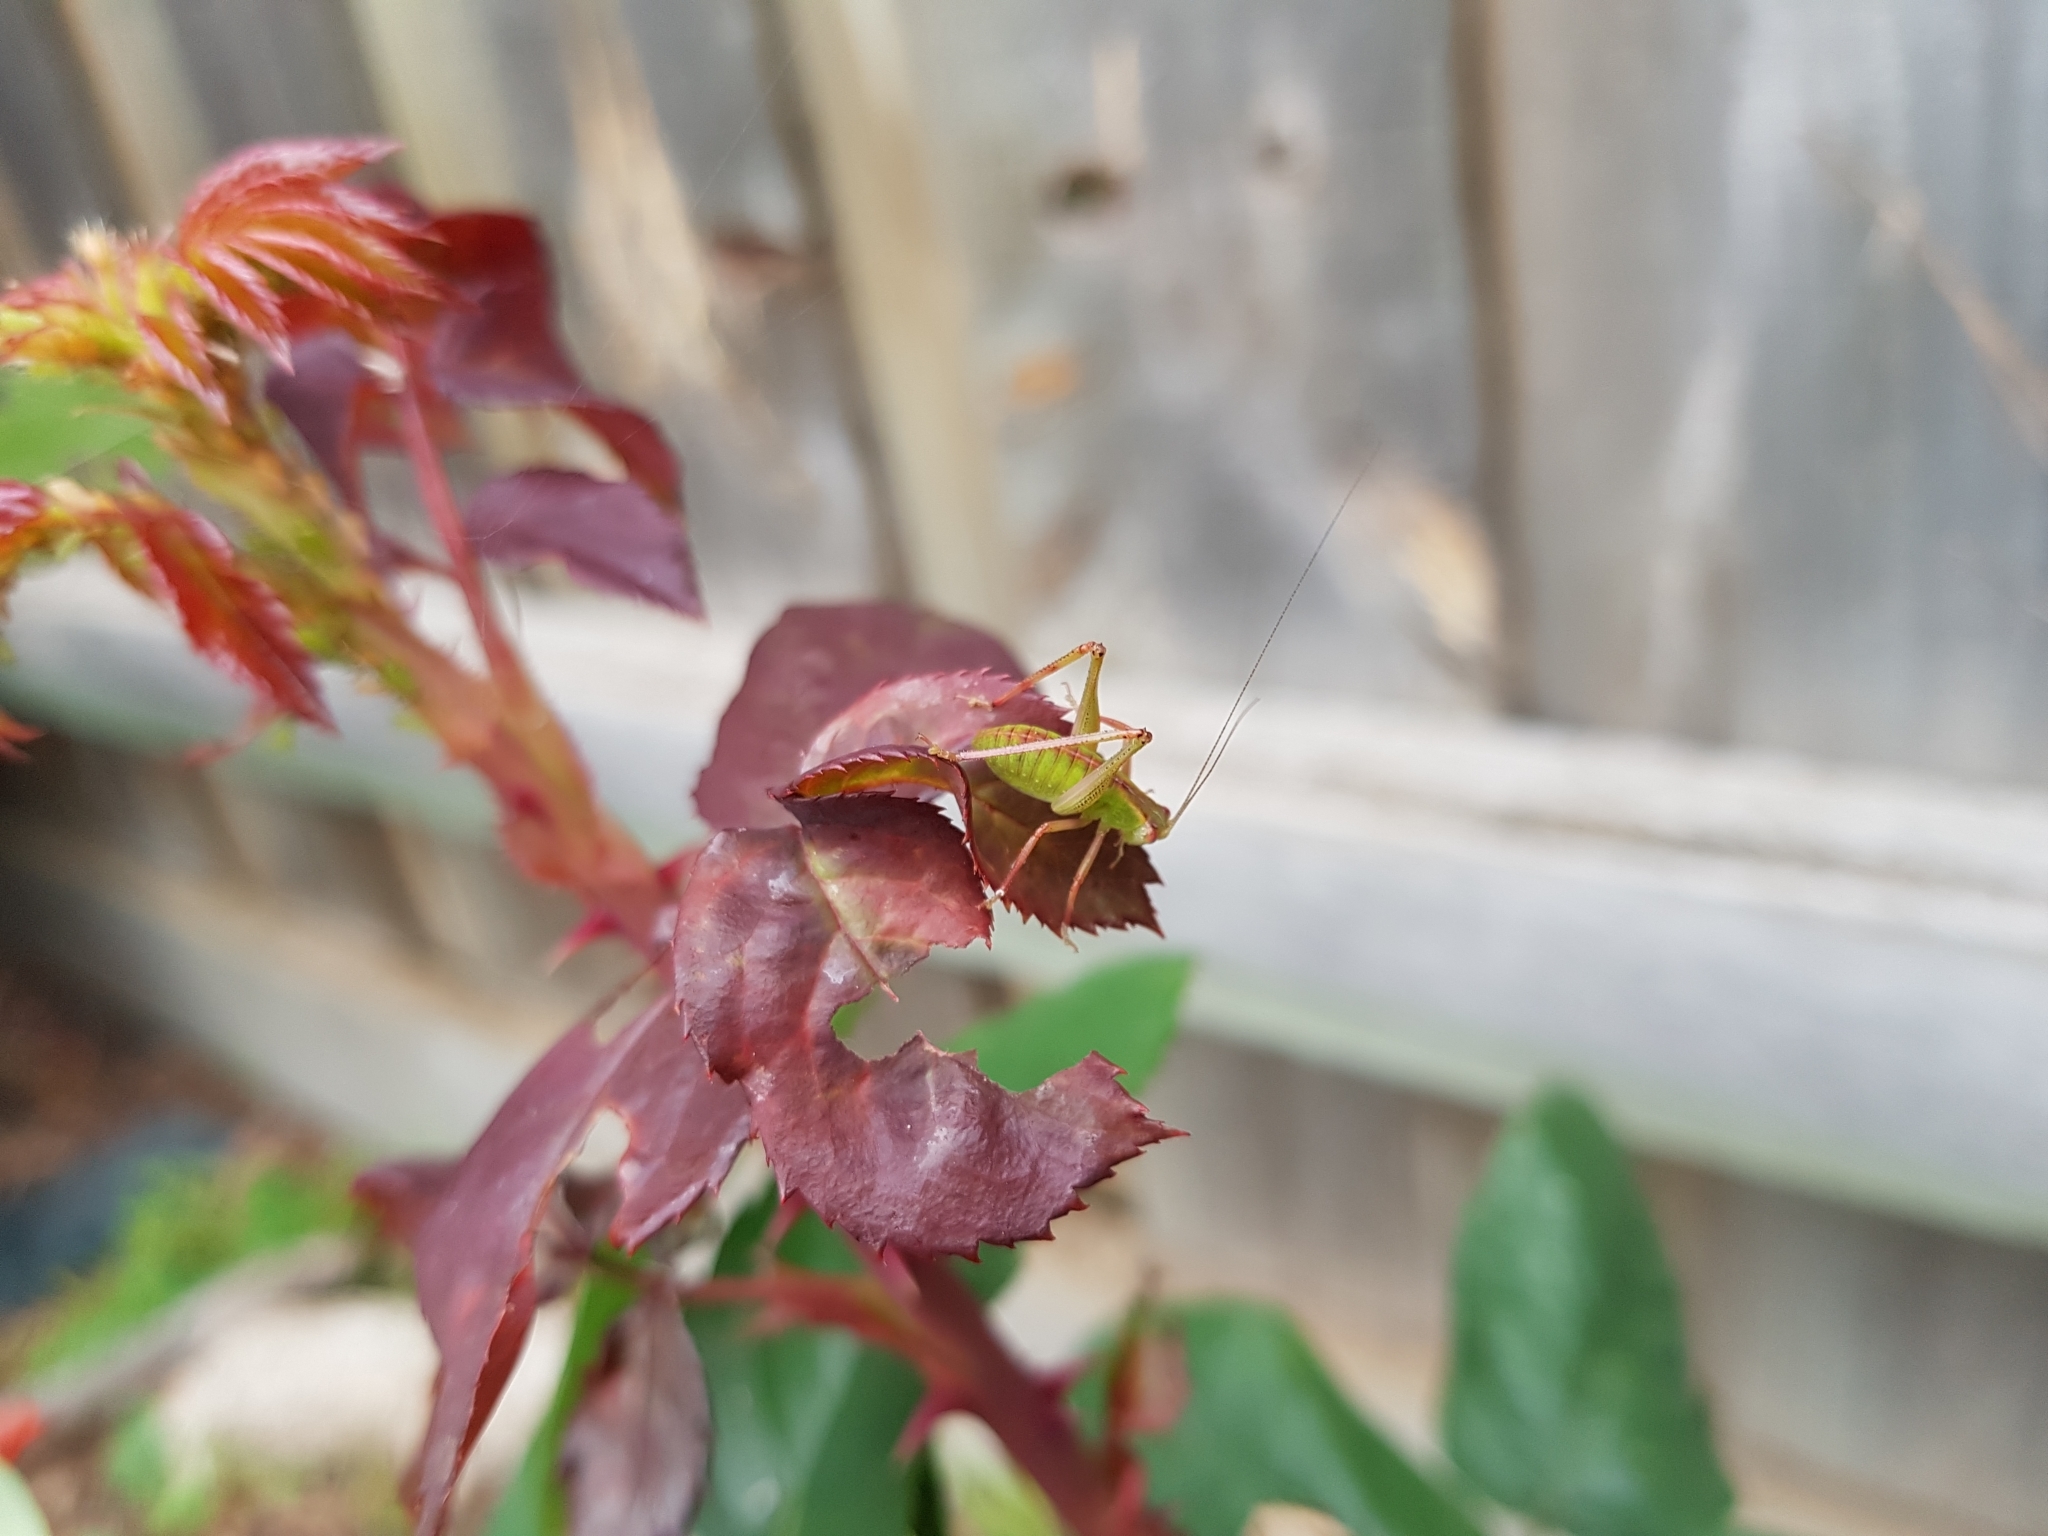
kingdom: Animalia
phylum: Arthropoda
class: Insecta
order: Orthoptera
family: Tettigoniidae
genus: Caedicia
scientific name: Caedicia simplex
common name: Common garden katydid
